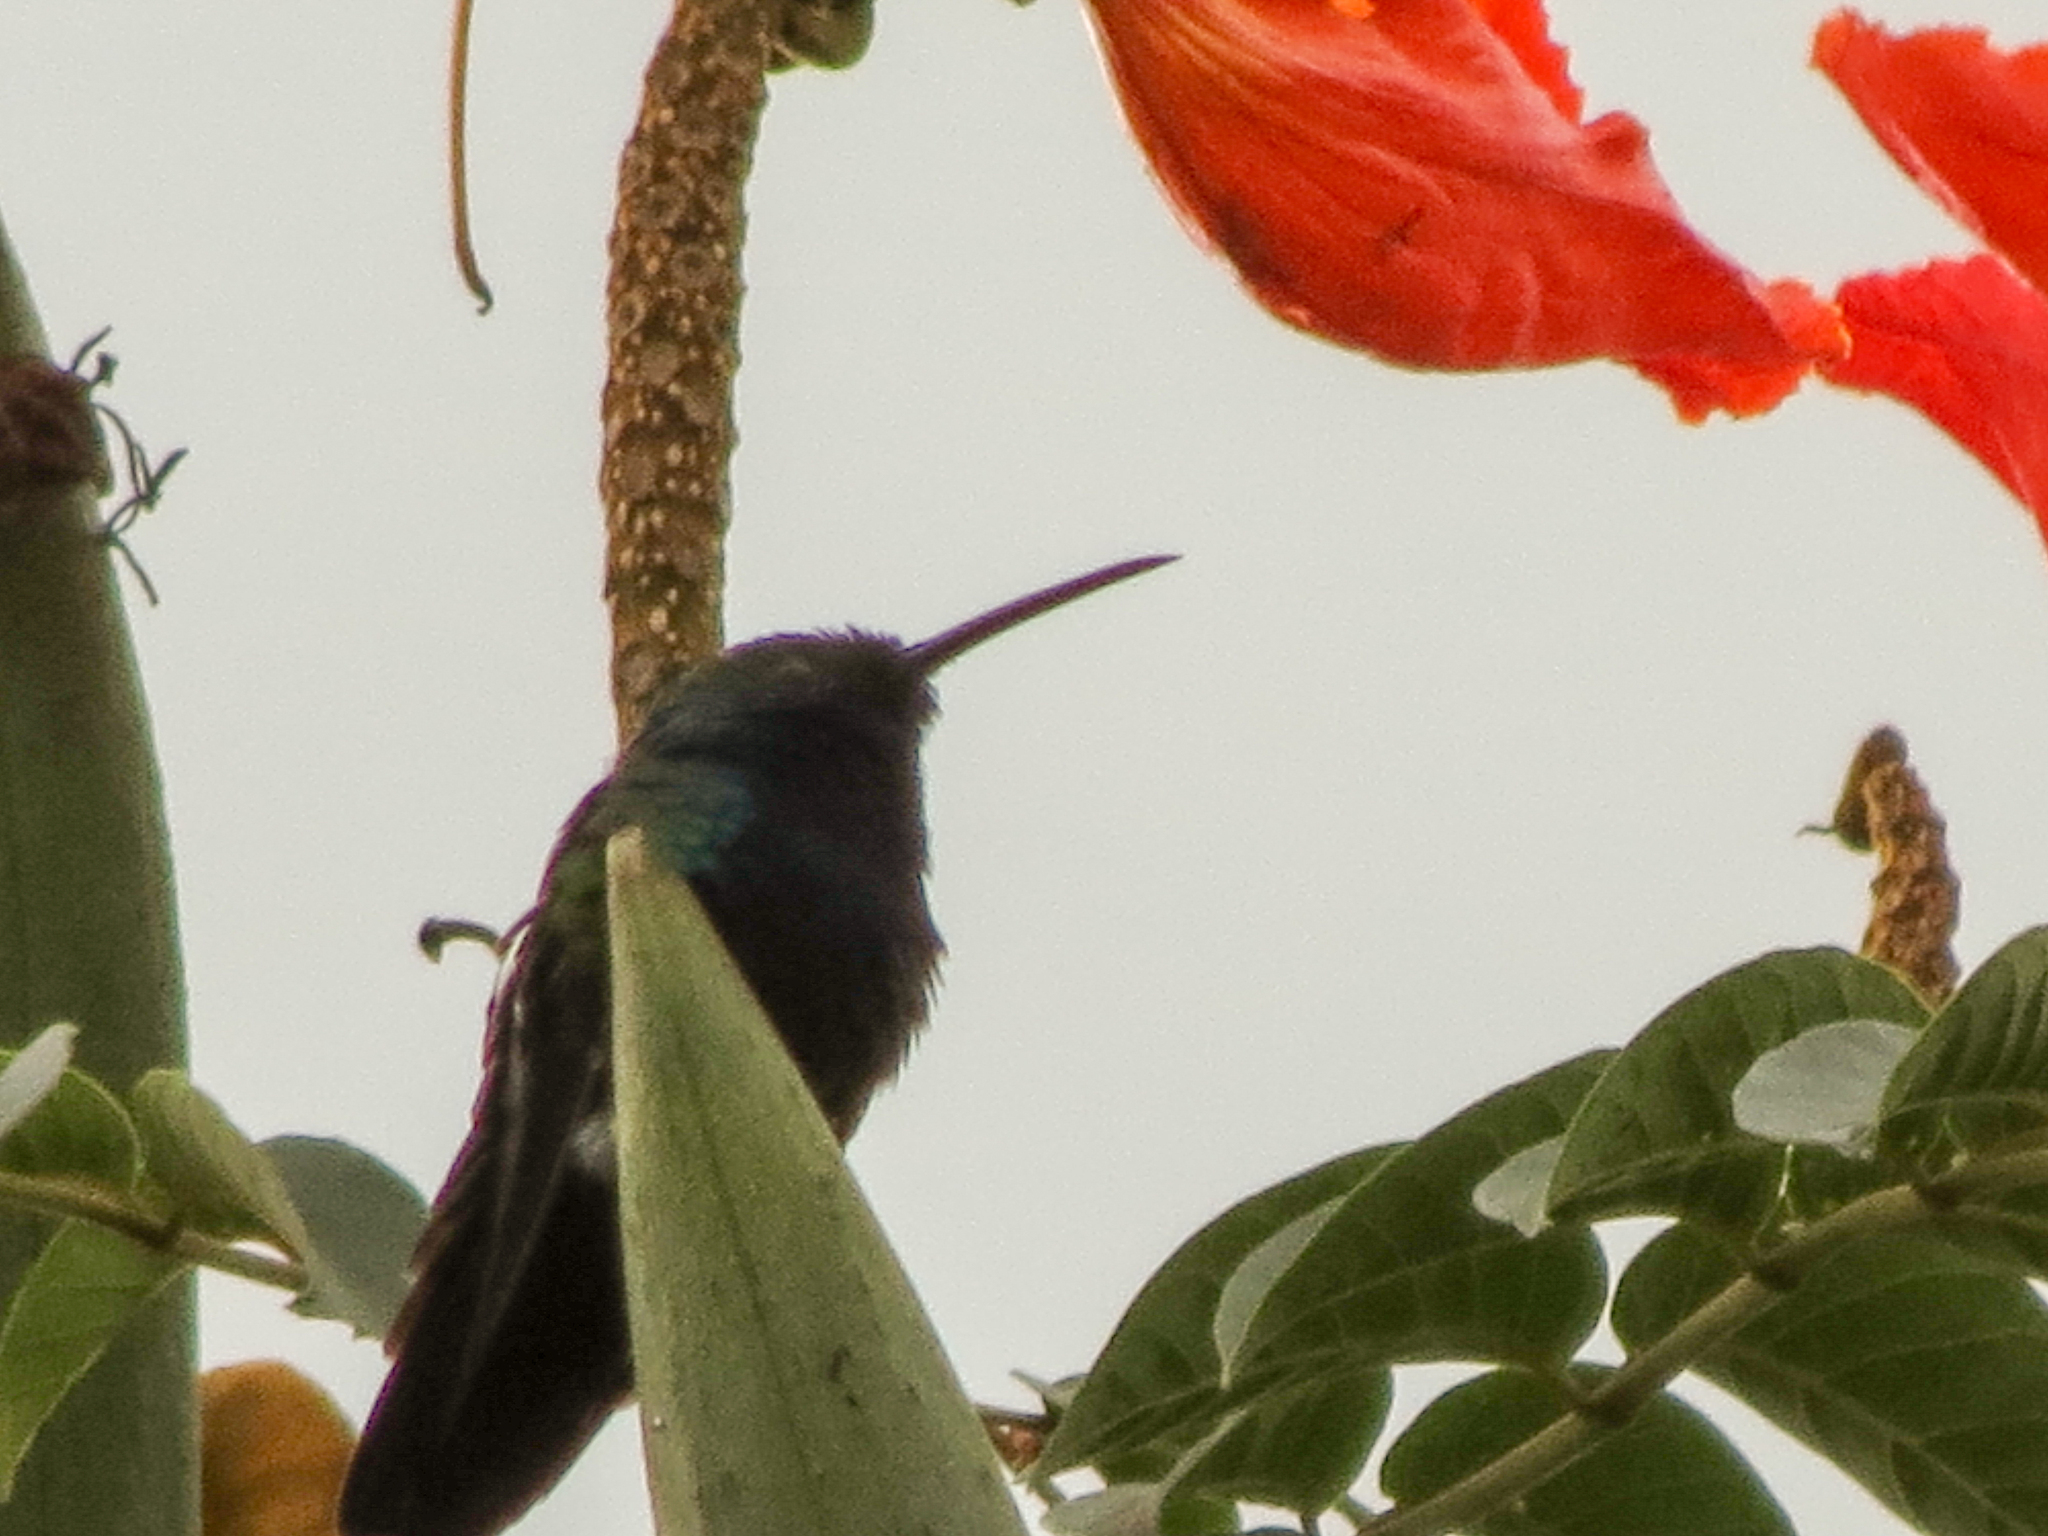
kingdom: Animalia
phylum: Chordata
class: Aves
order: Apodiformes
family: Trochilidae
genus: Anthracothorax
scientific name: Anthracothorax nigricollis
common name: Black-throated mango
